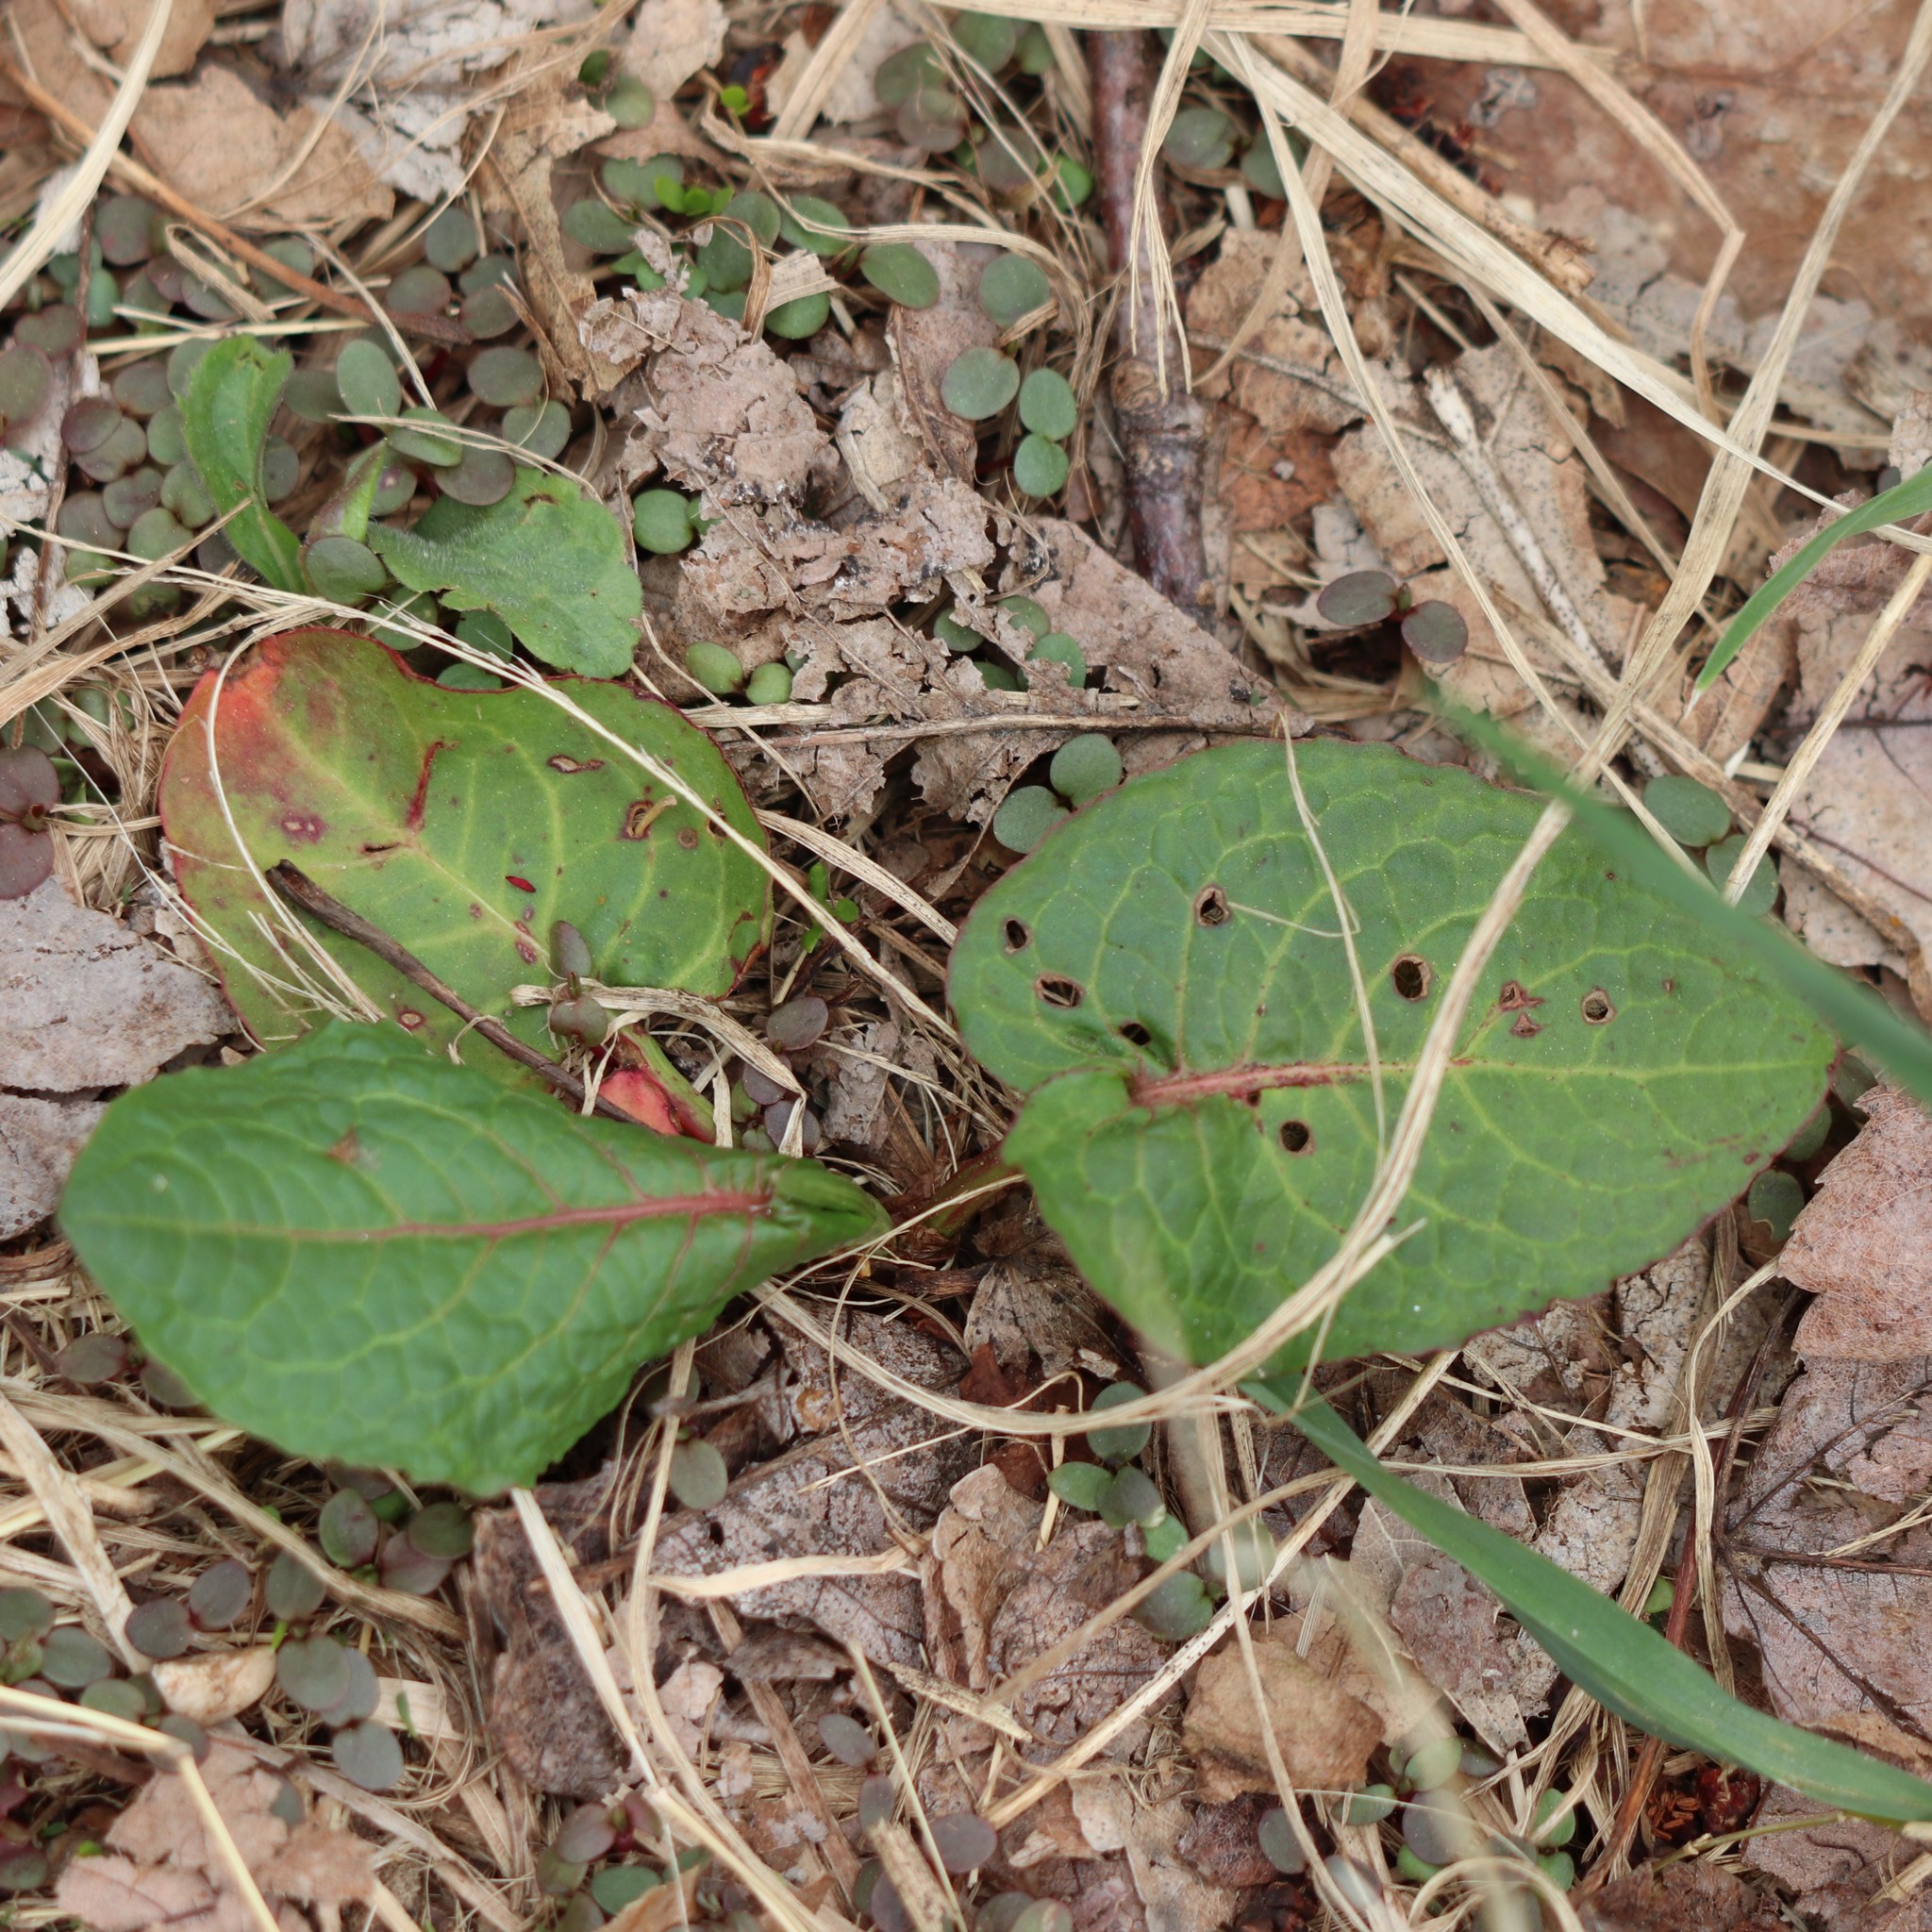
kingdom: Plantae
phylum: Tracheophyta
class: Magnoliopsida
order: Caryophyllales
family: Polygonaceae
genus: Rumex
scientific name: Rumex obtusifolius
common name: Bitter dock
